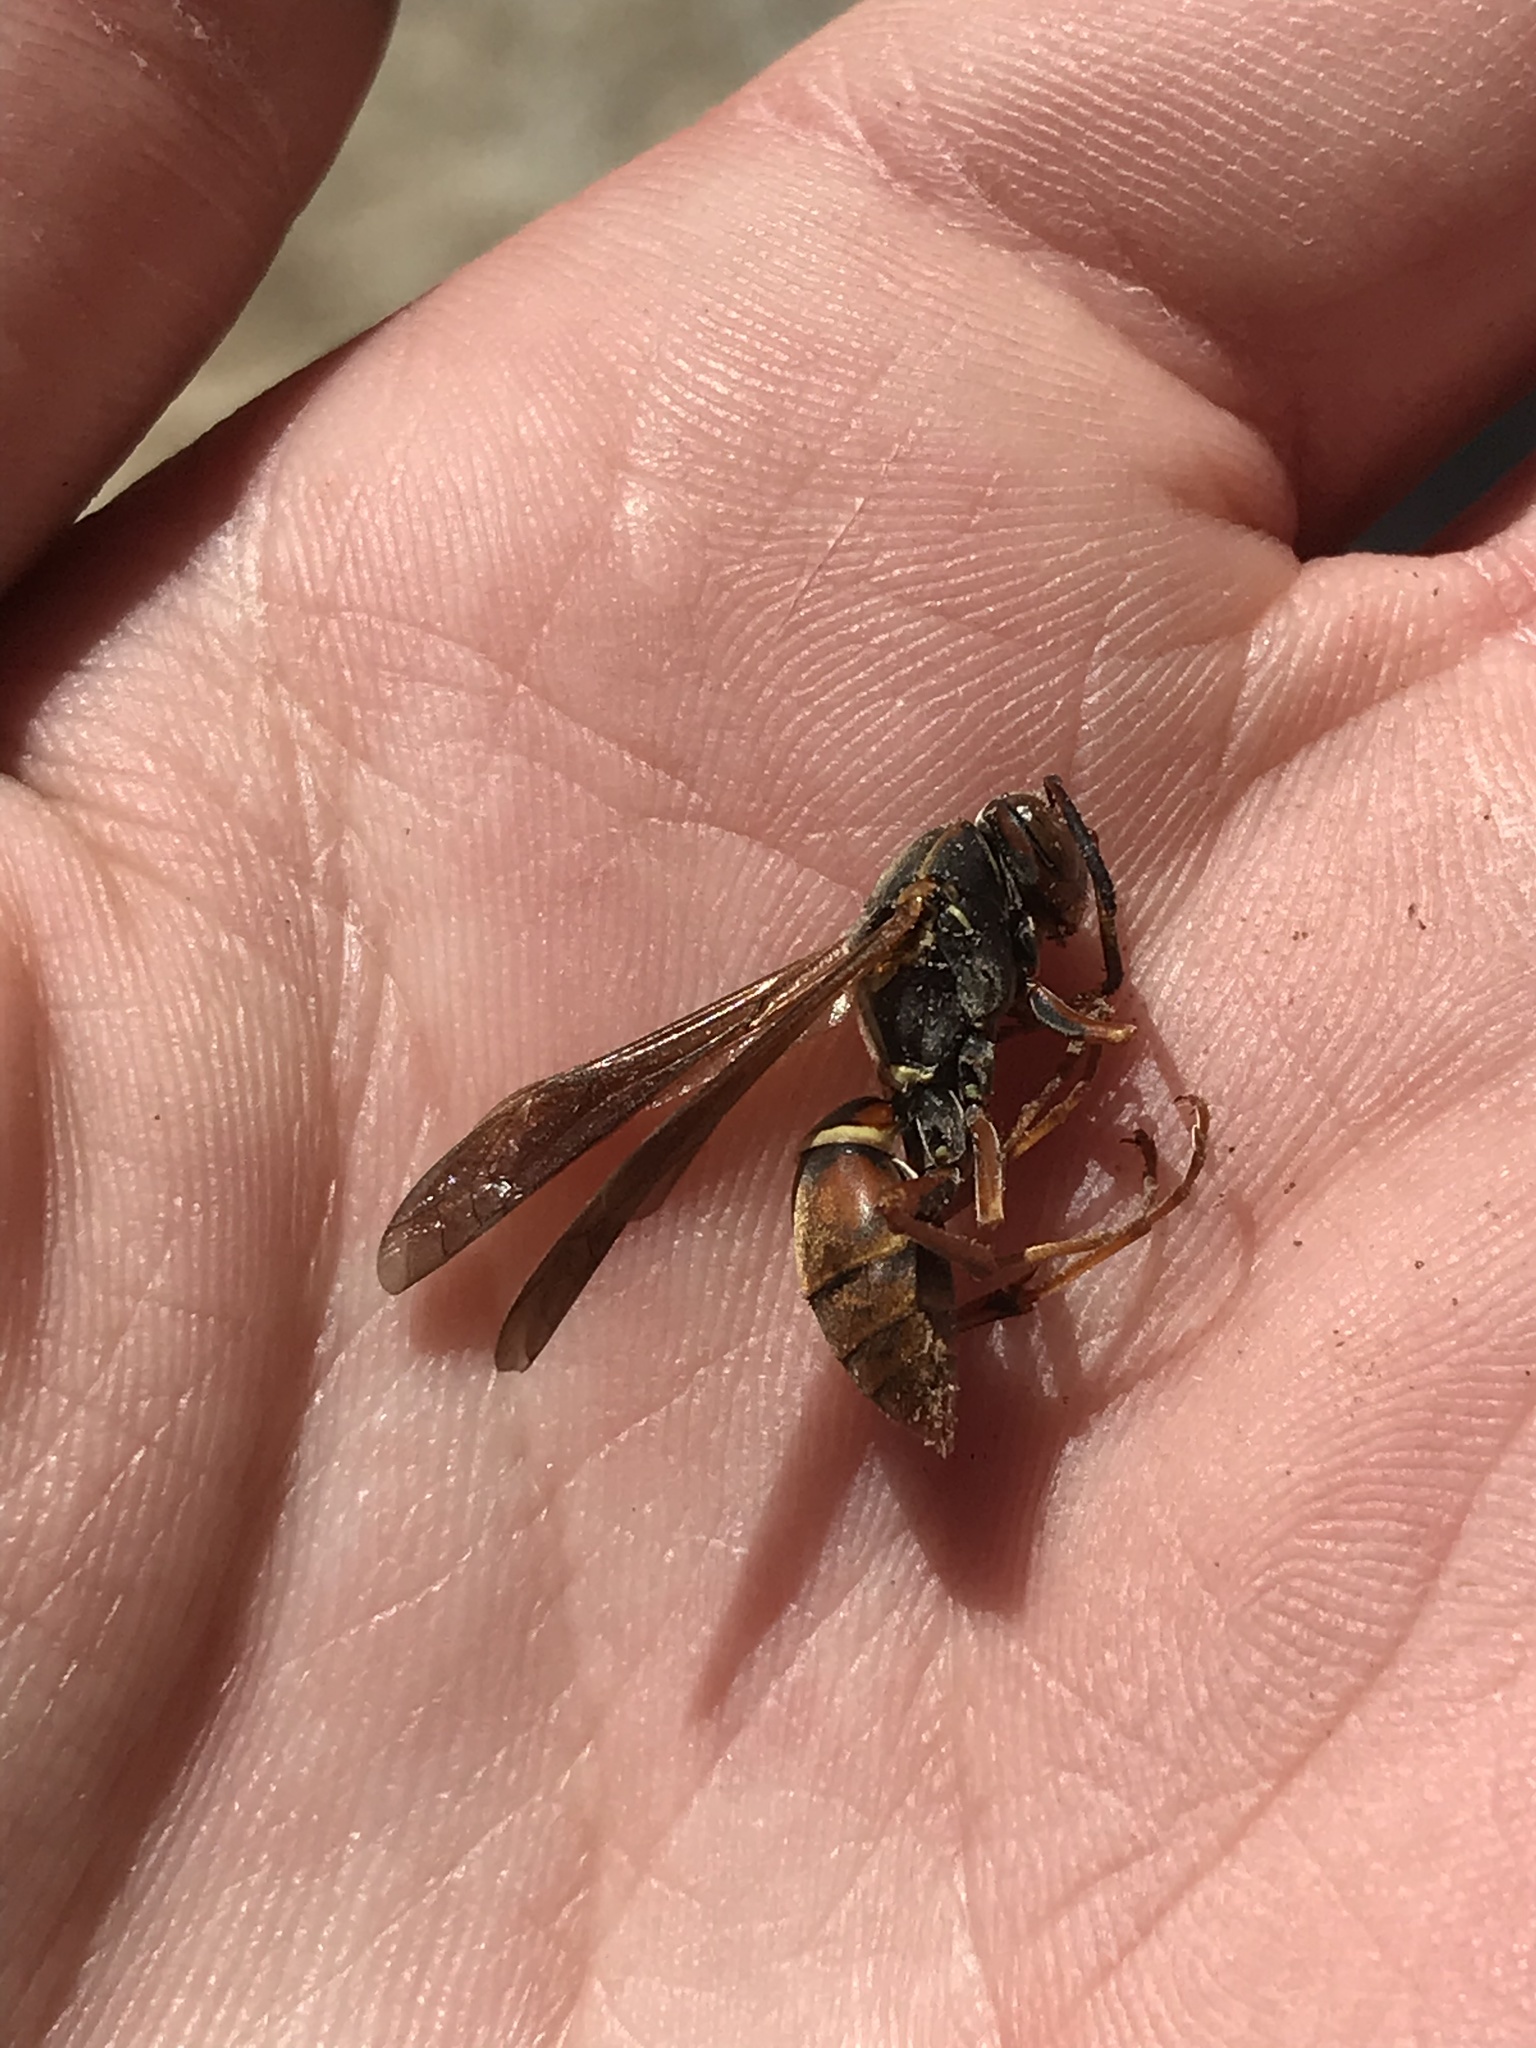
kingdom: Animalia
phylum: Arthropoda
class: Insecta
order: Hymenoptera
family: Eumenidae
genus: Polistes
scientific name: Polistes fuscatus
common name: Dark paper wasp
